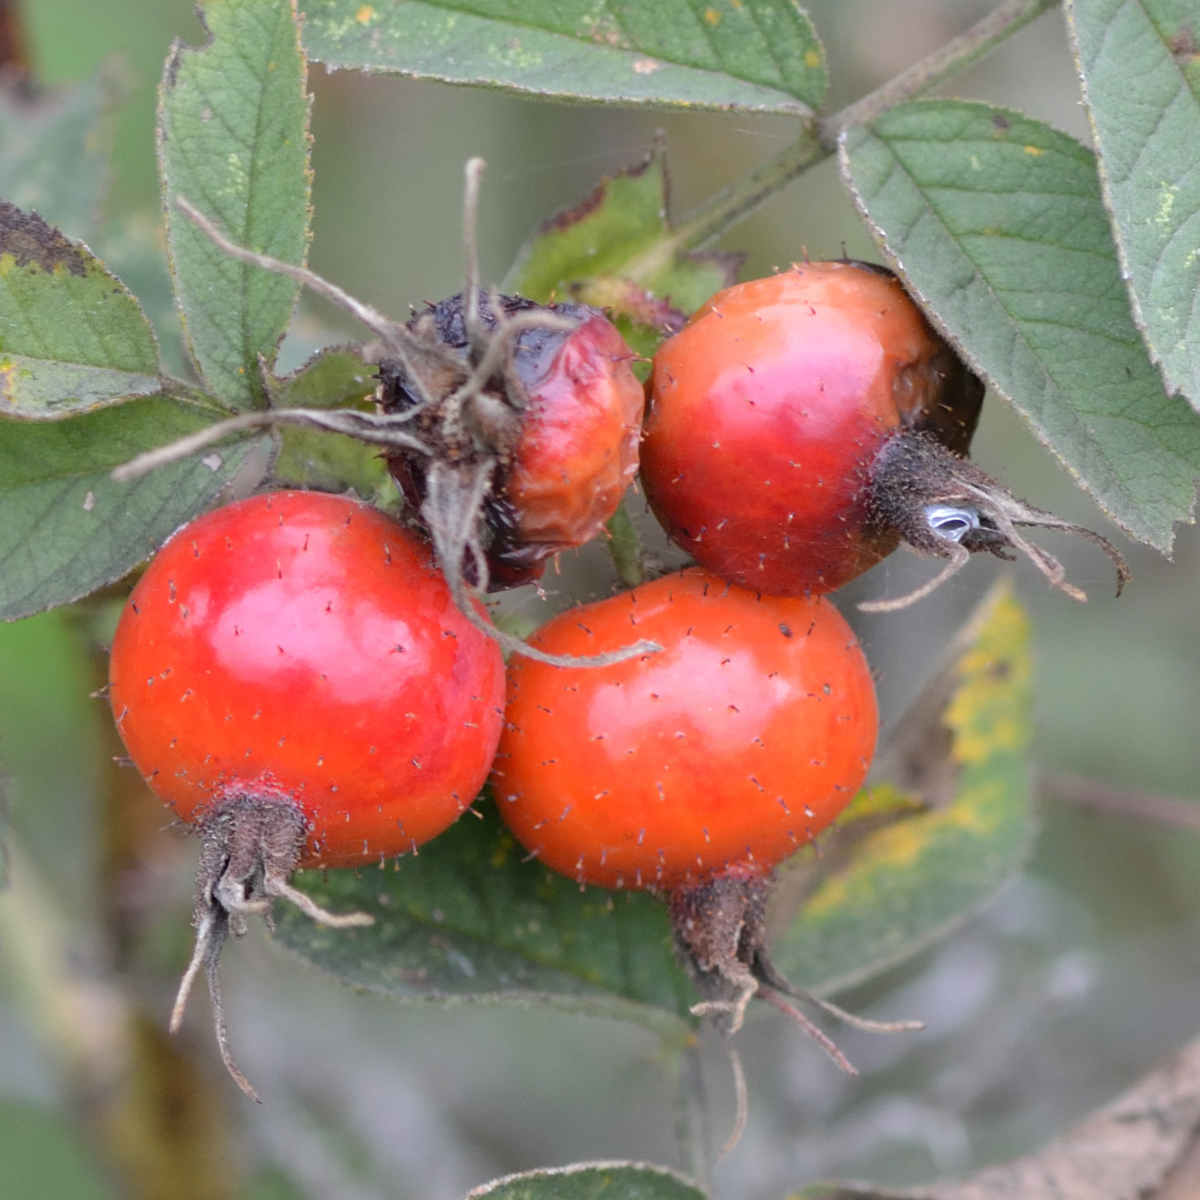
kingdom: Plantae
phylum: Tracheophyta
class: Magnoliopsida
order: Rosales
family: Rosaceae
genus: Rosa
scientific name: Rosa villosa
